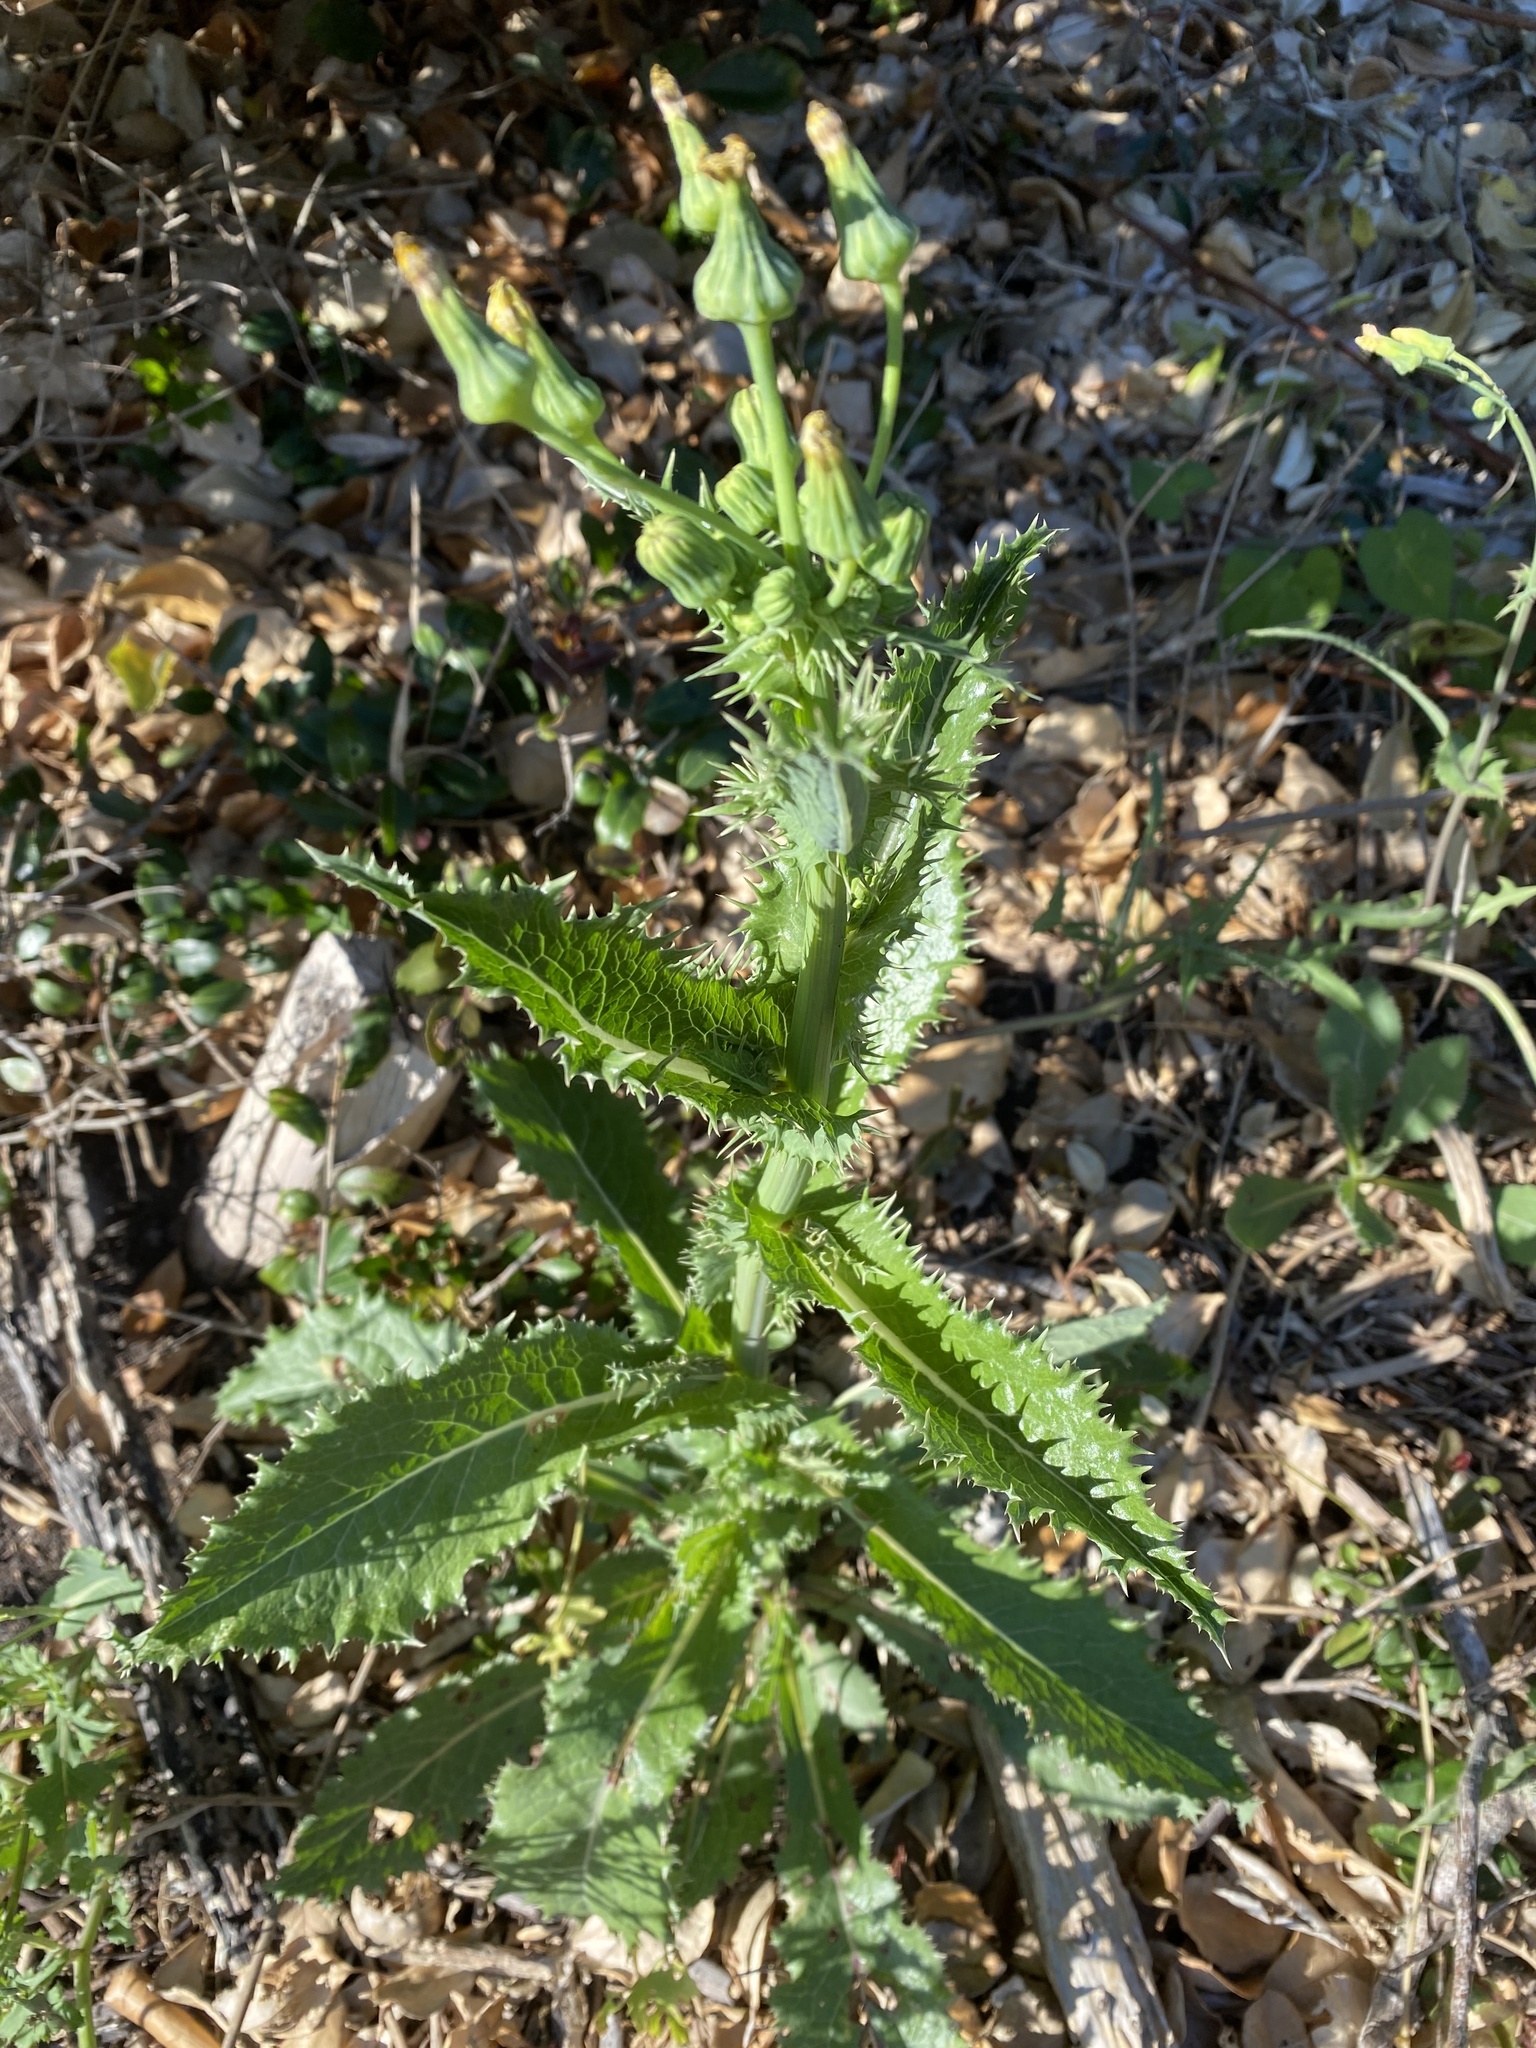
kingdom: Plantae
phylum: Tracheophyta
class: Magnoliopsida
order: Asterales
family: Asteraceae
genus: Sonchus
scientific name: Sonchus asper
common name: Prickly sow-thistle
